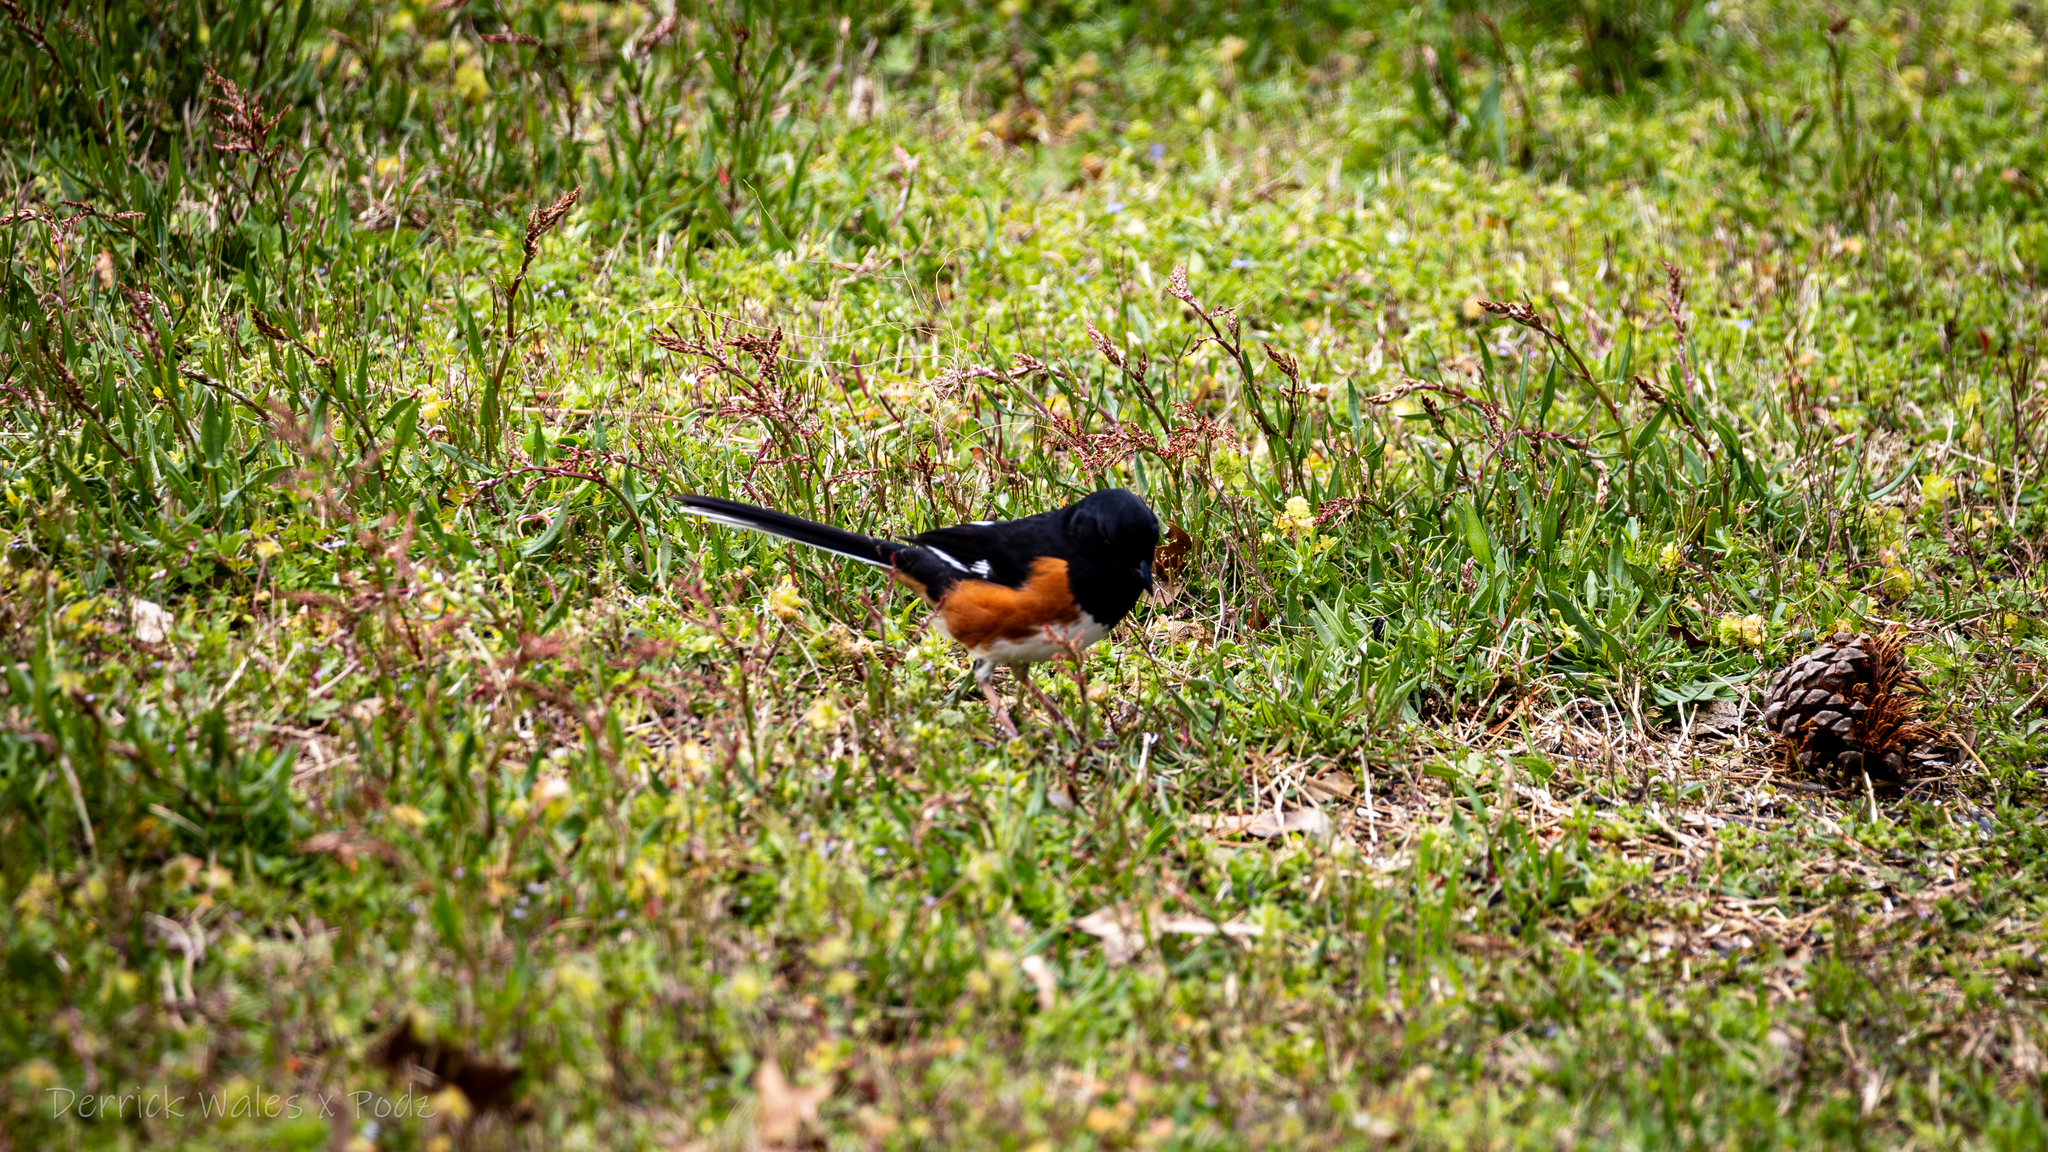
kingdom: Animalia
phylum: Chordata
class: Aves
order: Passeriformes
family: Passerellidae
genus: Pipilo
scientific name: Pipilo erythrophthalmus
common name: Eastern towhee
